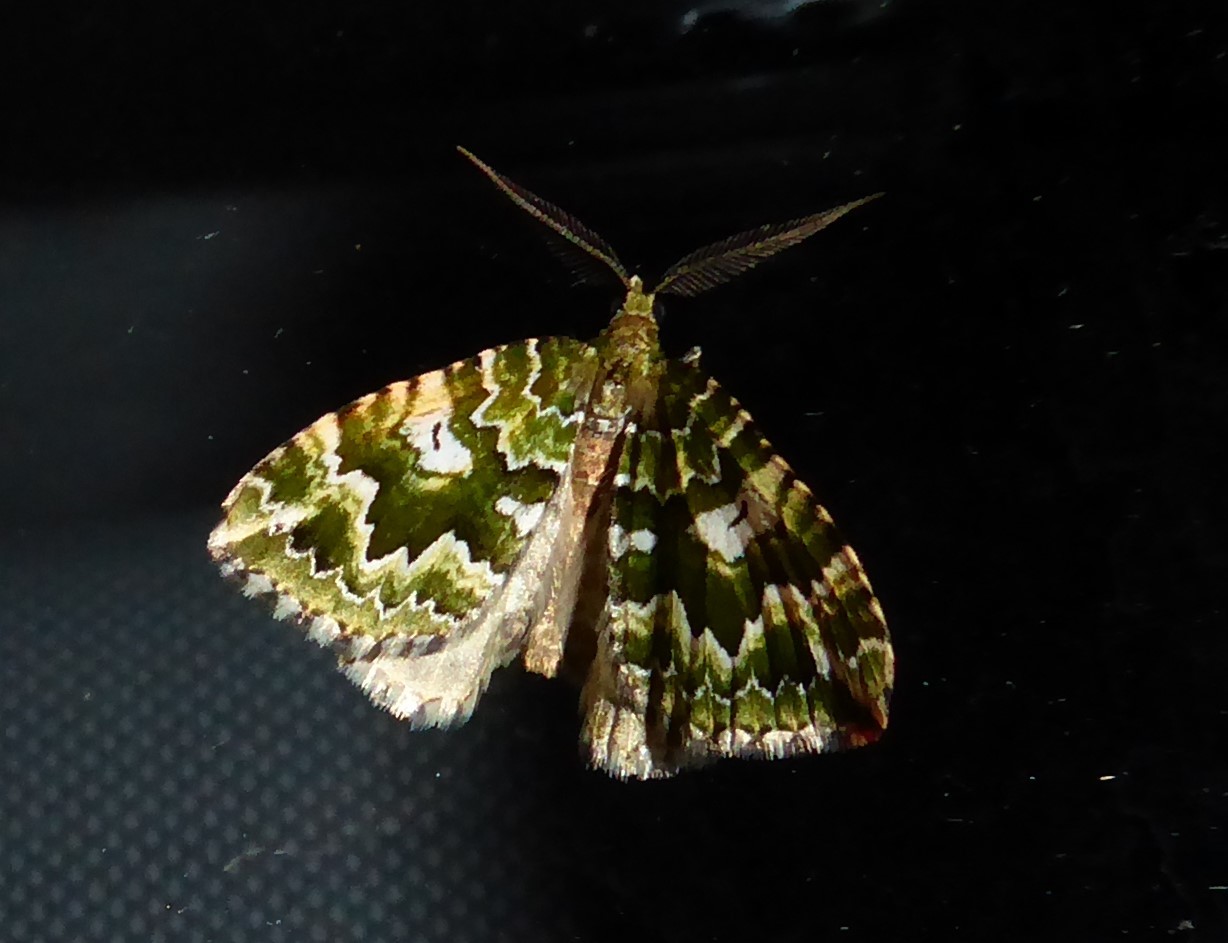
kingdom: Animalia
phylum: Arthropoda
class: Insecta
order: Lepidoptera
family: Geometridae
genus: Asaphodes
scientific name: Asaphodes beata
